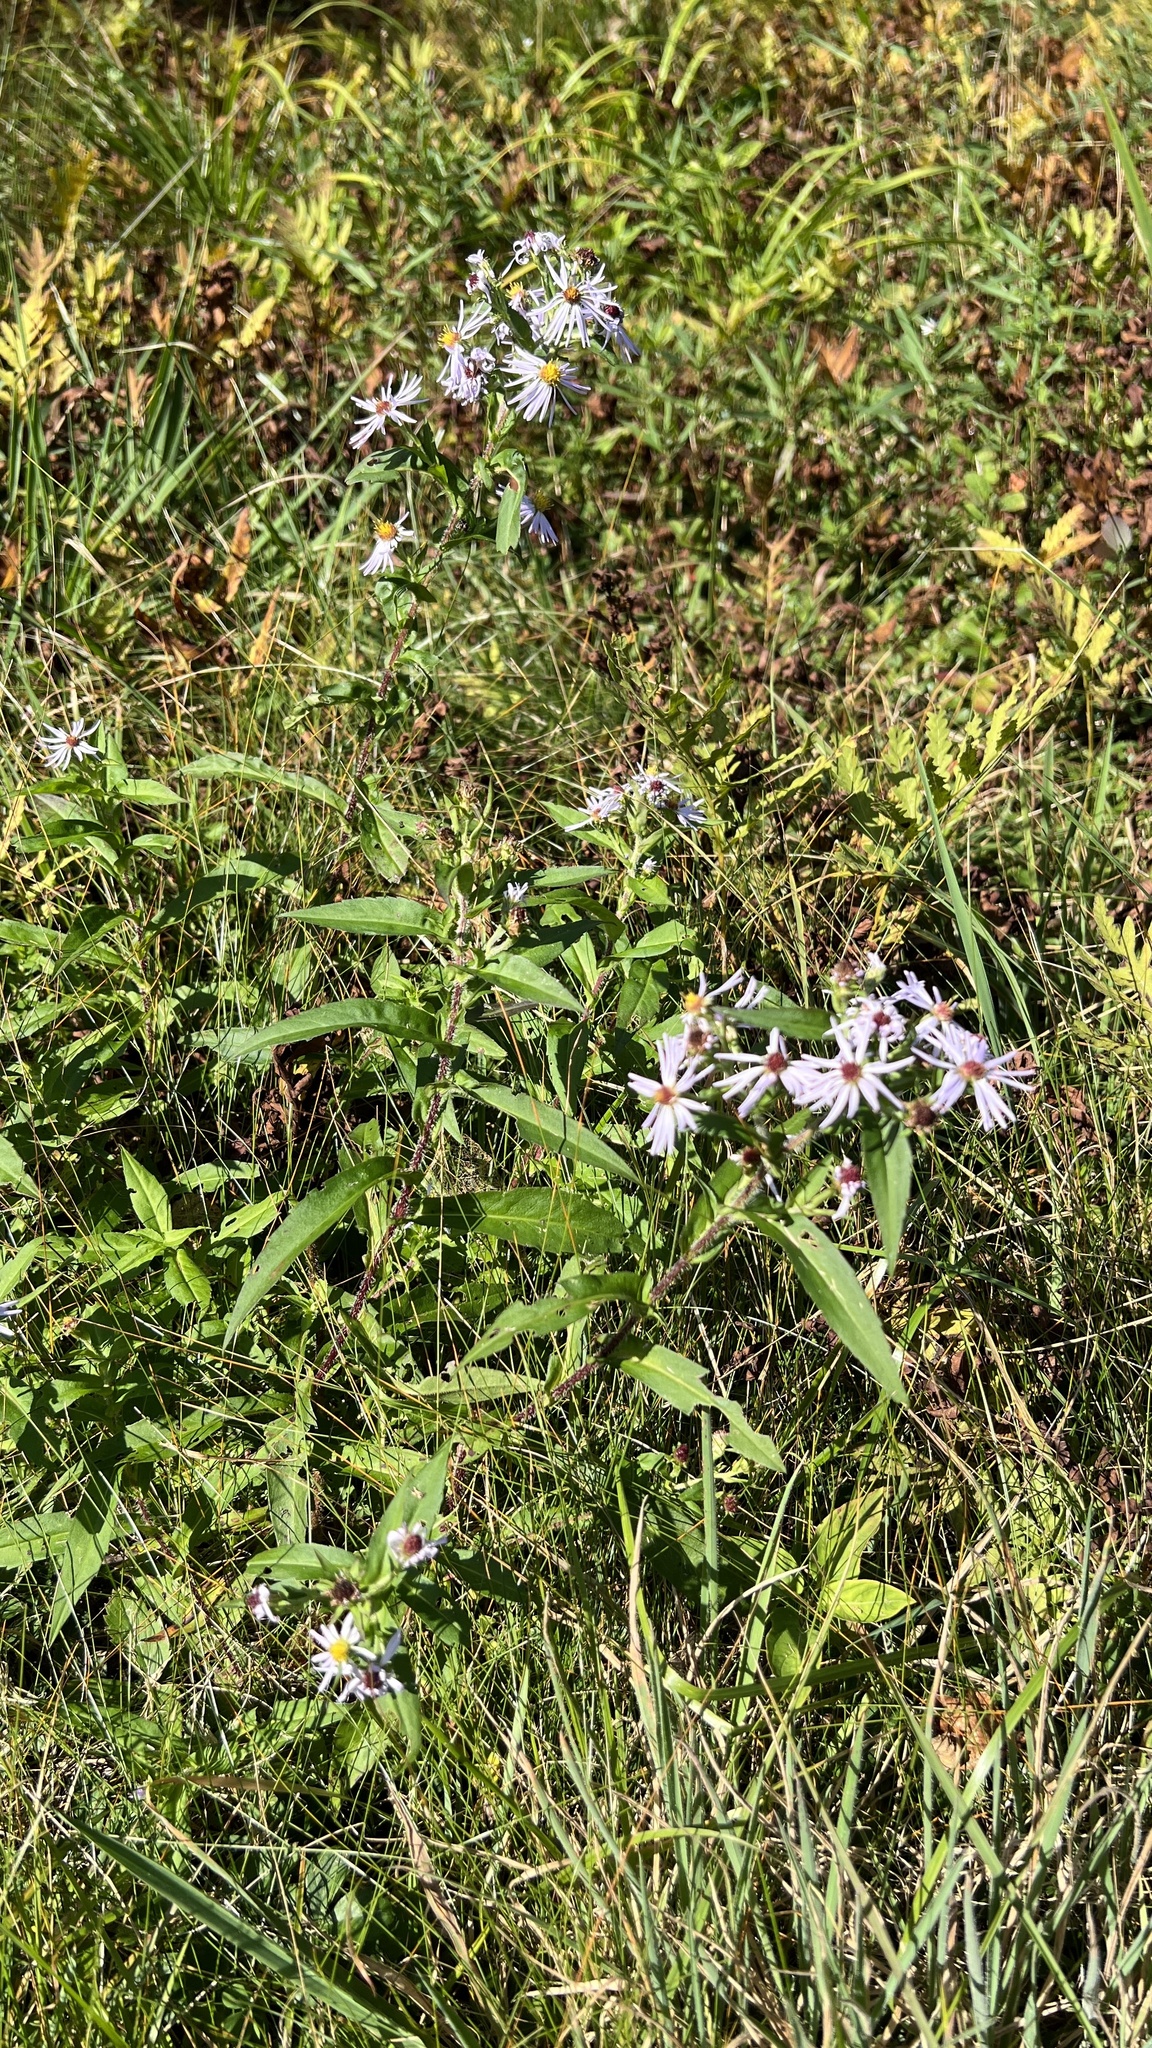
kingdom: Plantae
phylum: Tracheophyta
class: Magnoliopsida
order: Asterales
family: Asteraceae
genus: Symphyotrichum
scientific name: Symphyotrichum puniceum
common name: Bog aster
